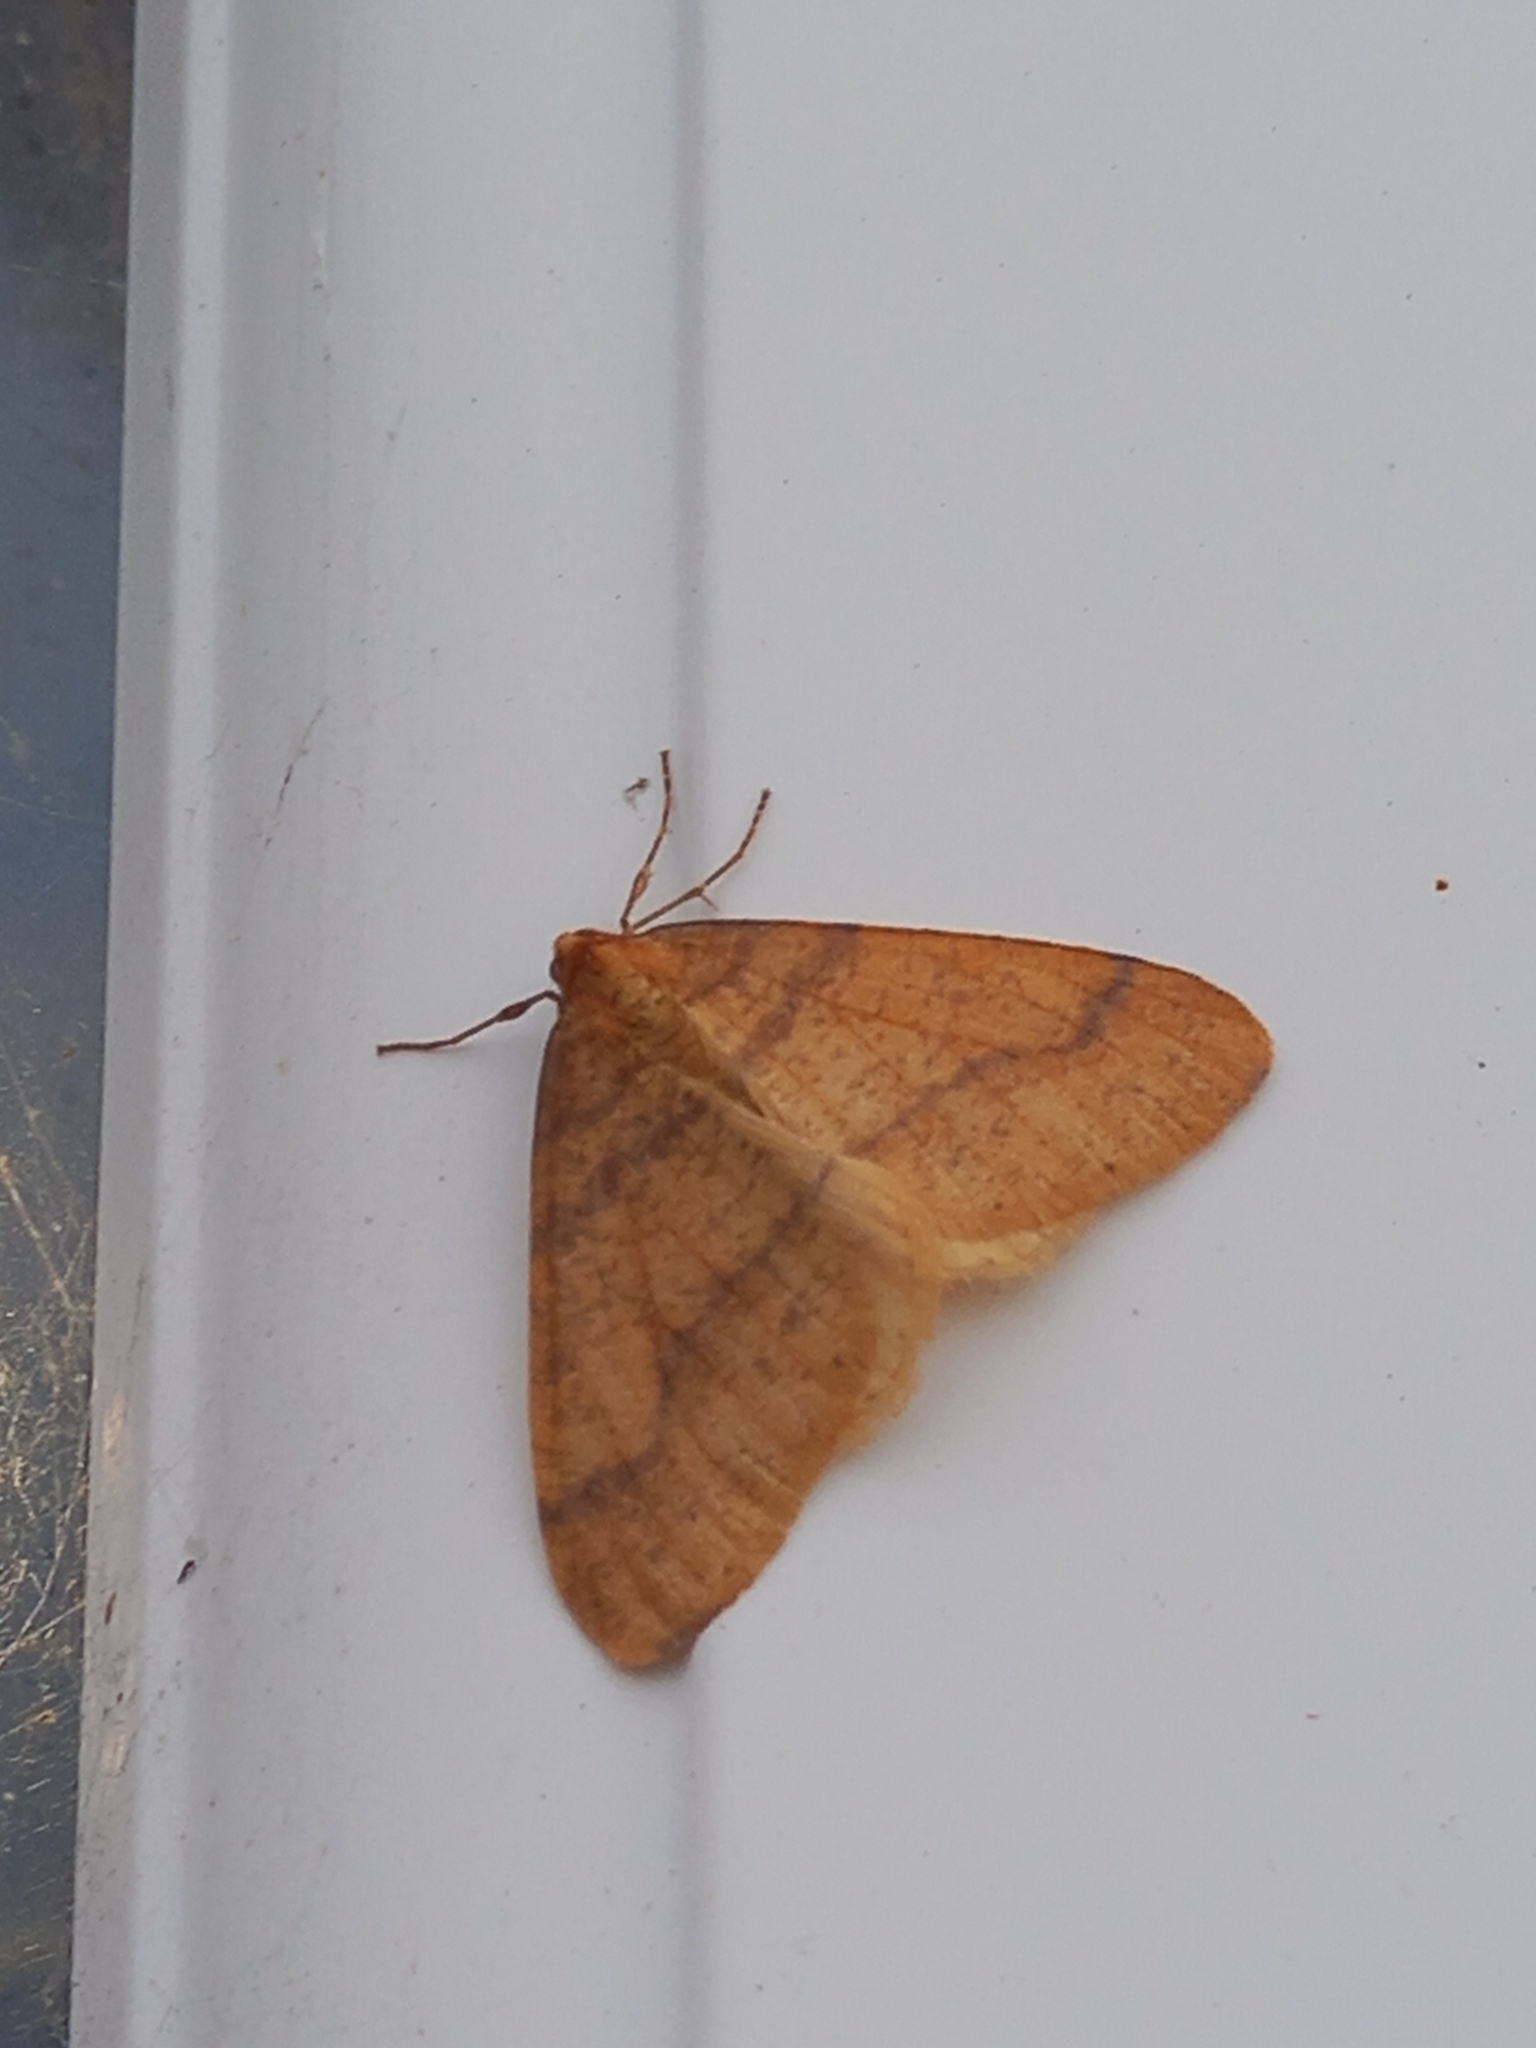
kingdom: Animalia
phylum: Arthropoda
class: Insecta
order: Lepidoptera
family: Geometridae
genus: Agriopis
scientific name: Agriopis aurantiaria
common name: Scarce umber
